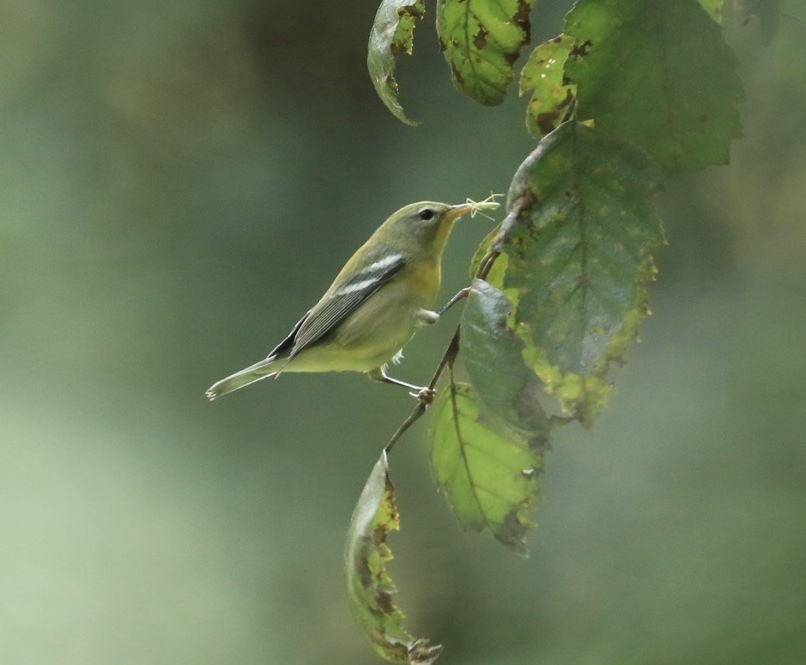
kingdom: Animalia
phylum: Chordata
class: Aves
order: Passeriformes
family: Parulidae
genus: Setophaga
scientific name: Setophaga americana
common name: Northern parula
